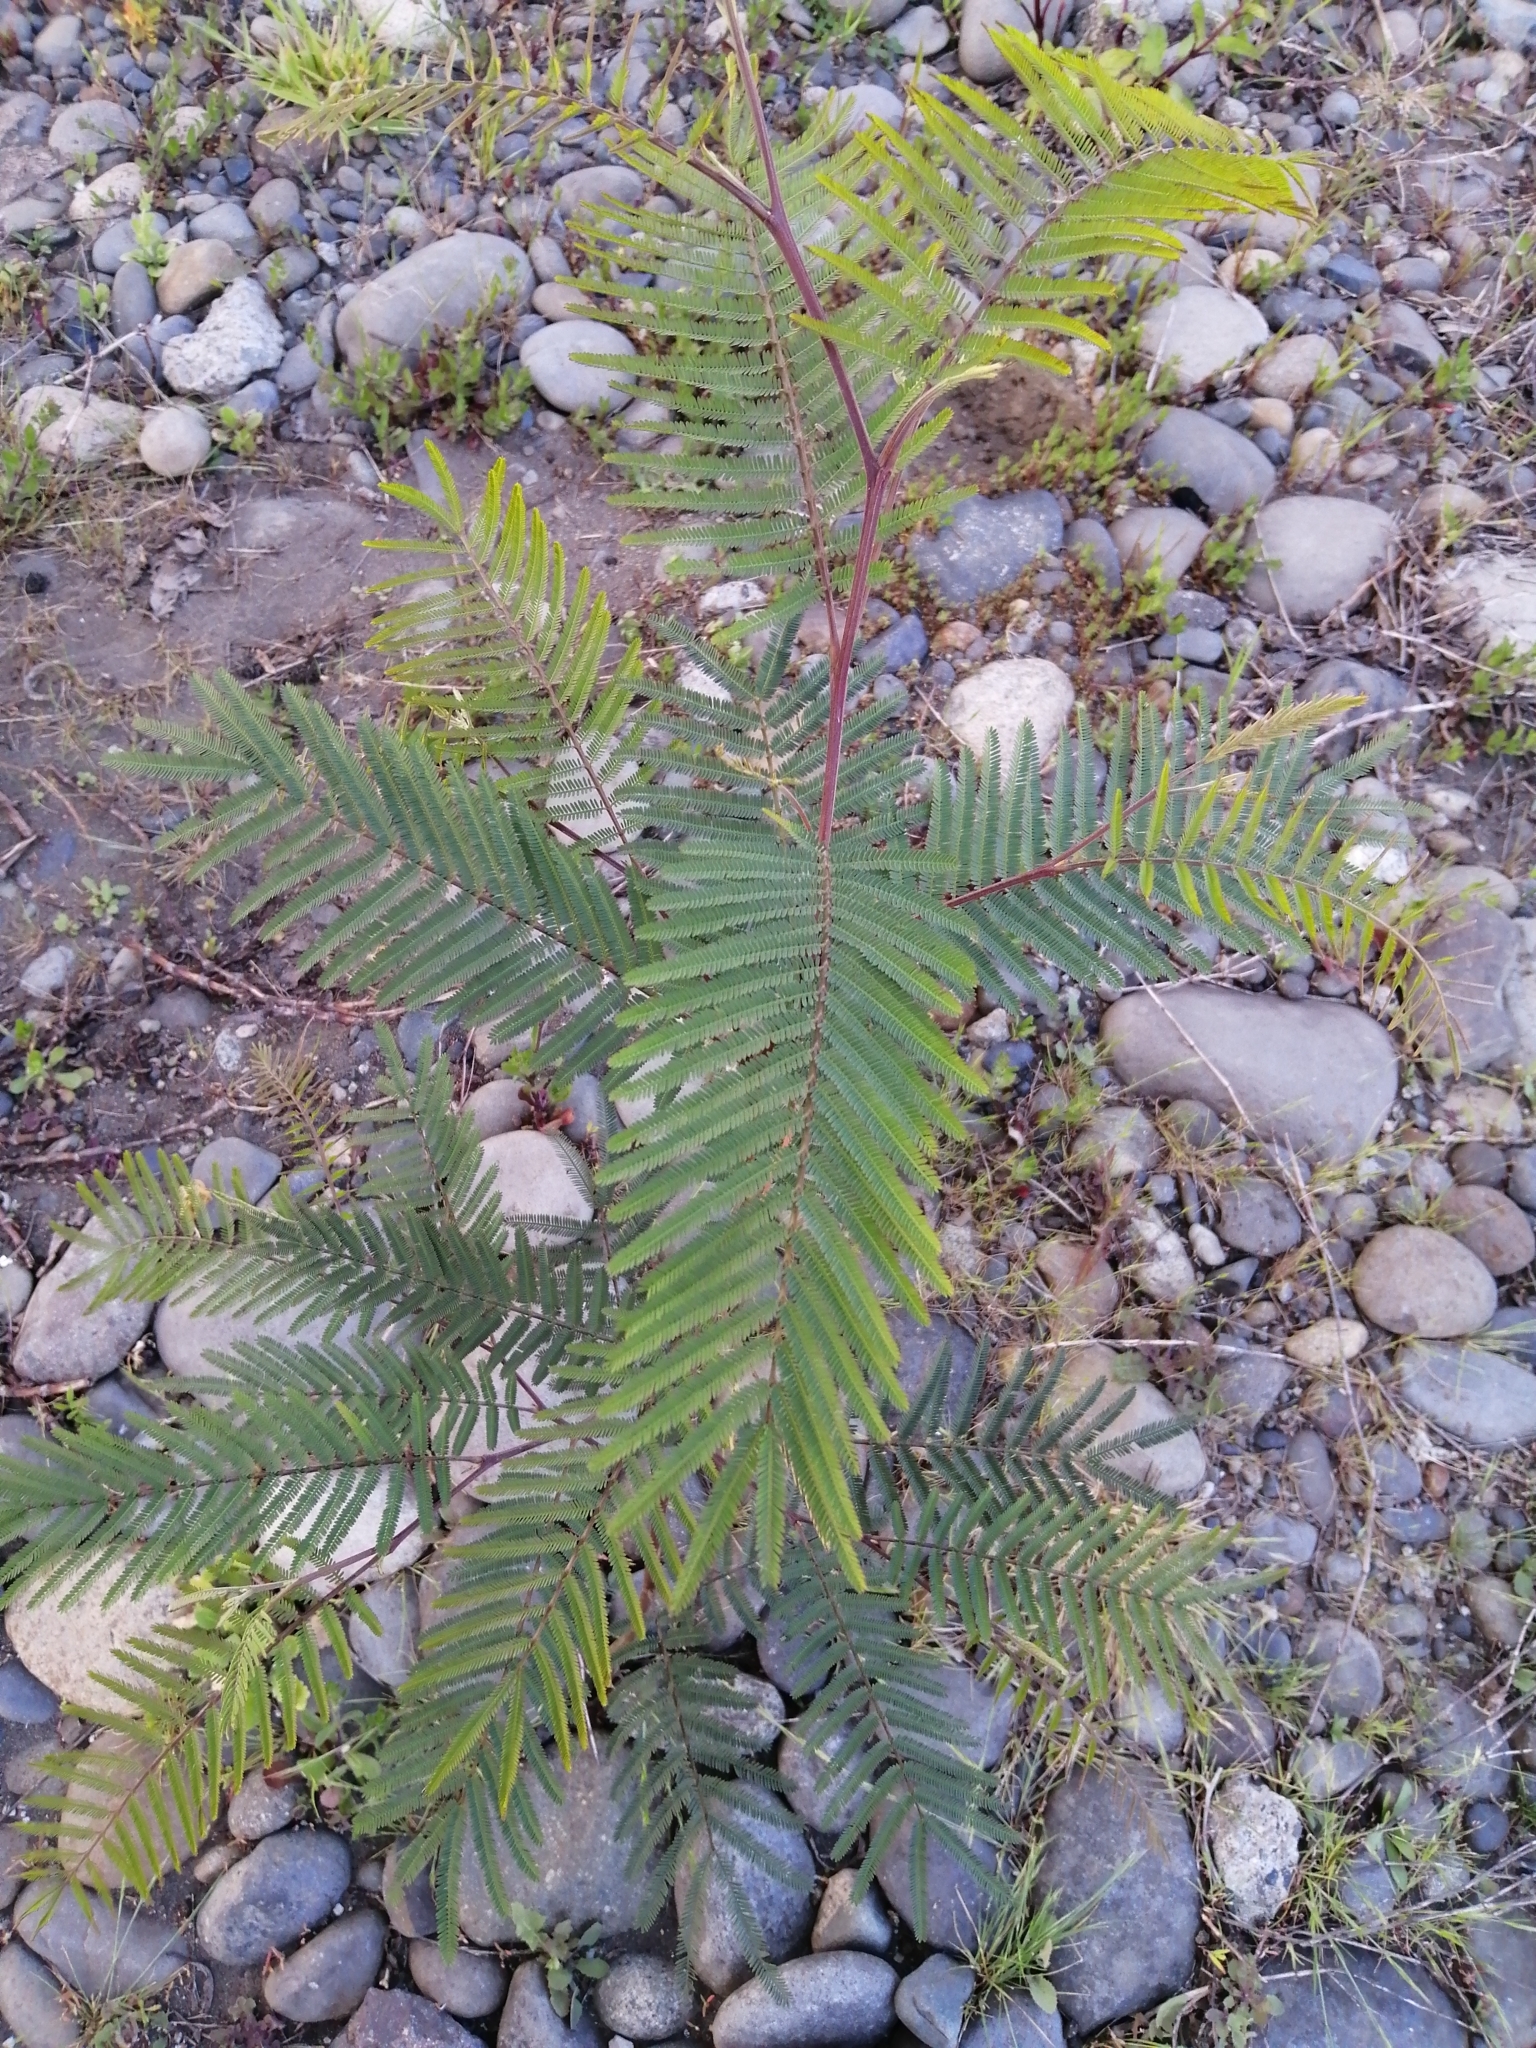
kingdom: Plantae
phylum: Tracheophyta
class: Magnoliopsida
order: Fabales
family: Fabaceae
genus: Acacia
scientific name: Acacia dealbata
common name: Silver wattle
